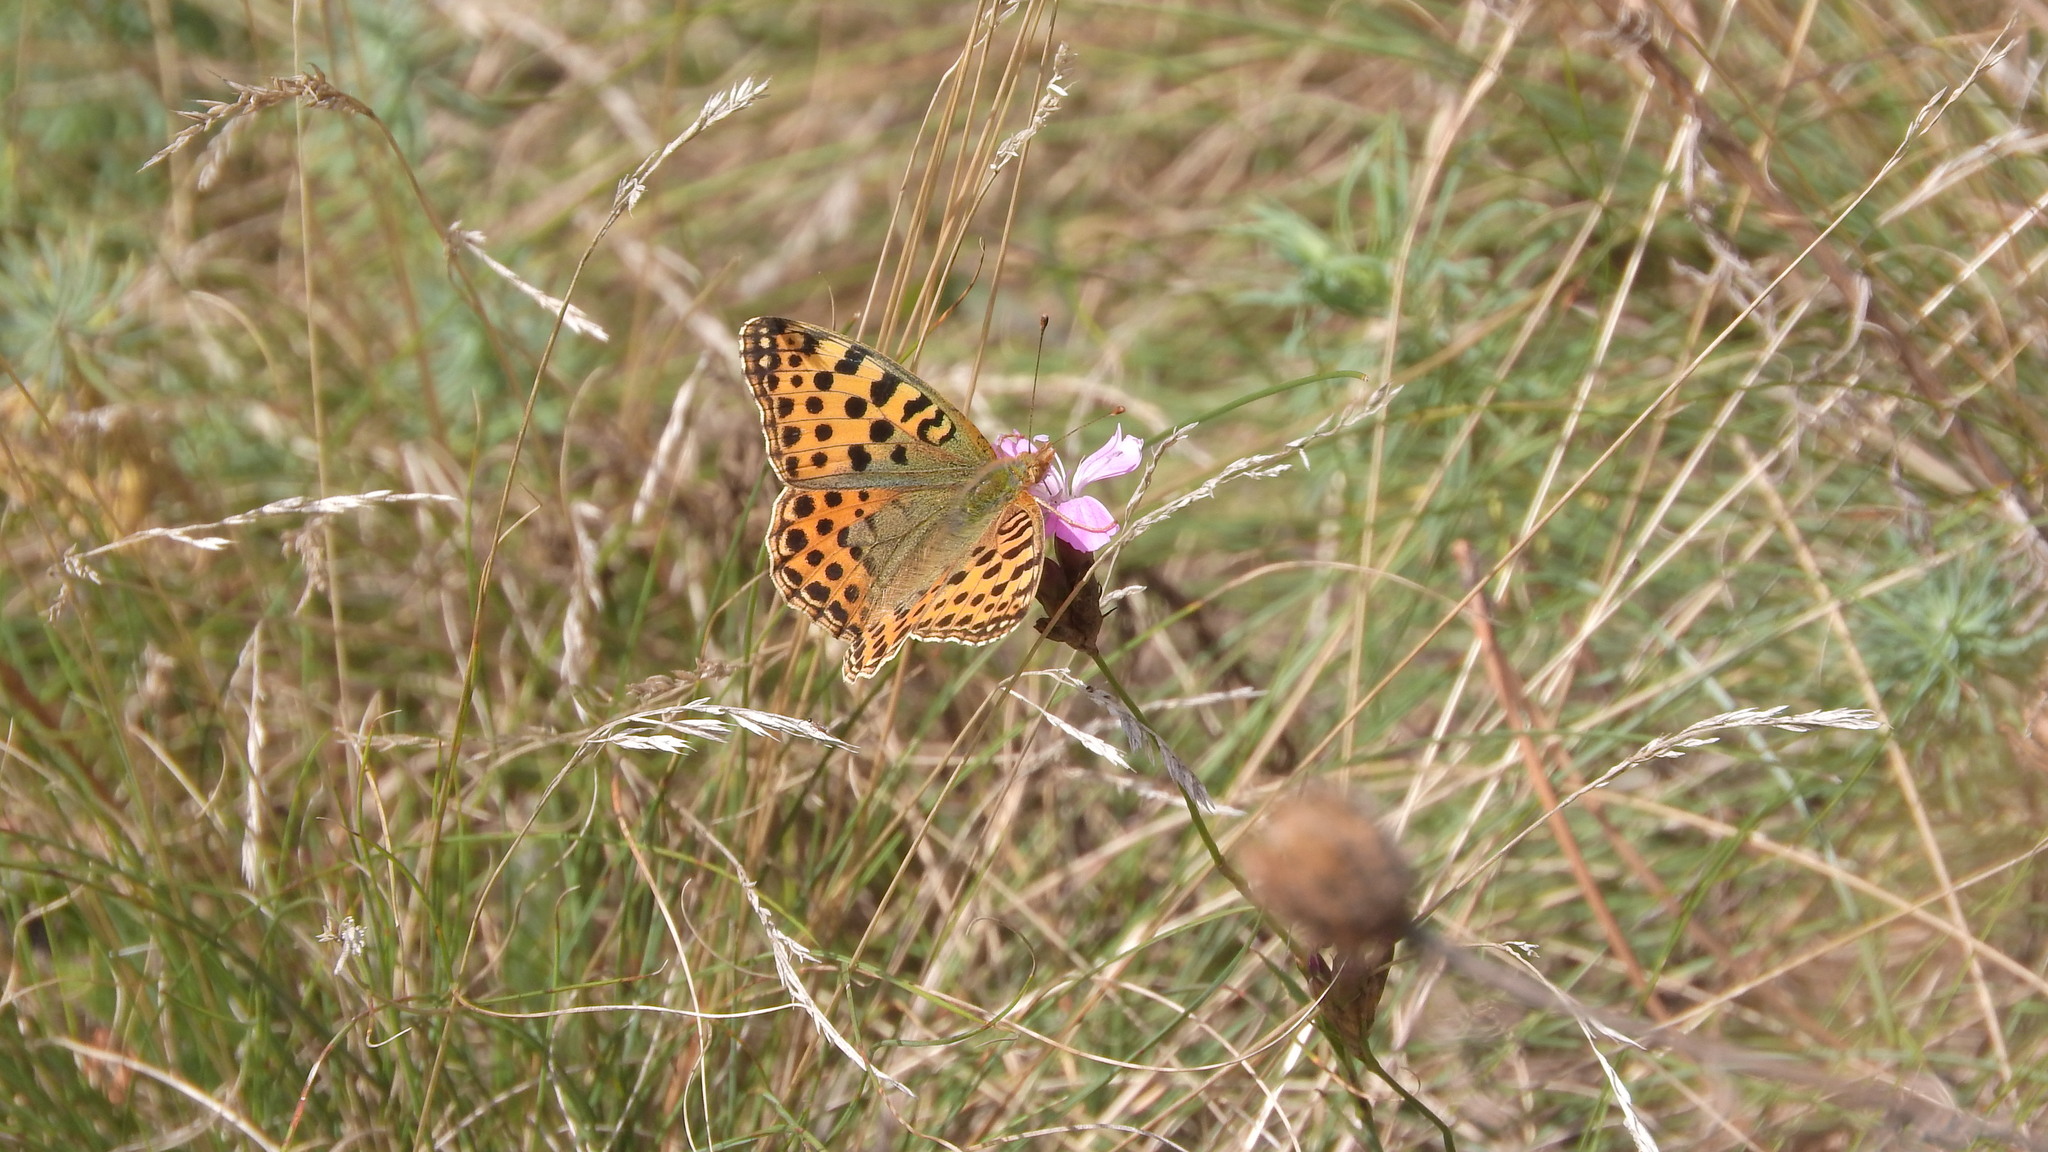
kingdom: Animalia
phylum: Arthropoda
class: Insecta
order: Lepidoptera
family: Nymphalidae
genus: Issoria
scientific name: Issoria lathonia
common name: Queen of spain fritillary
